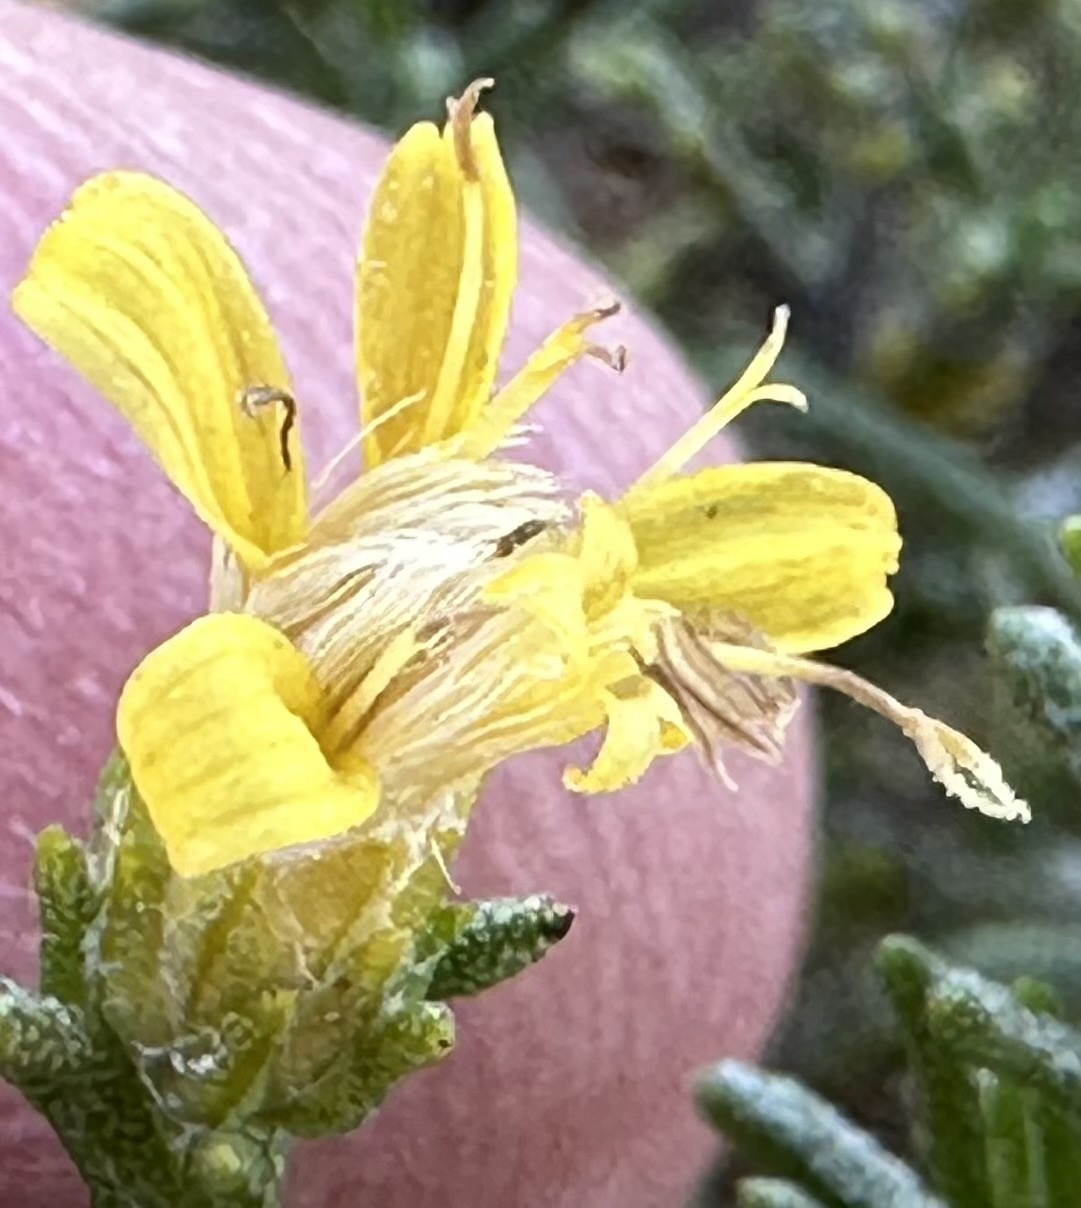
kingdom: Plantae
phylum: Tracheophyta
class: Magnoliopsida
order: Asterales
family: Asteraceae
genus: Ericameria
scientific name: Ericameria ericoides
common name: California goldenbush
